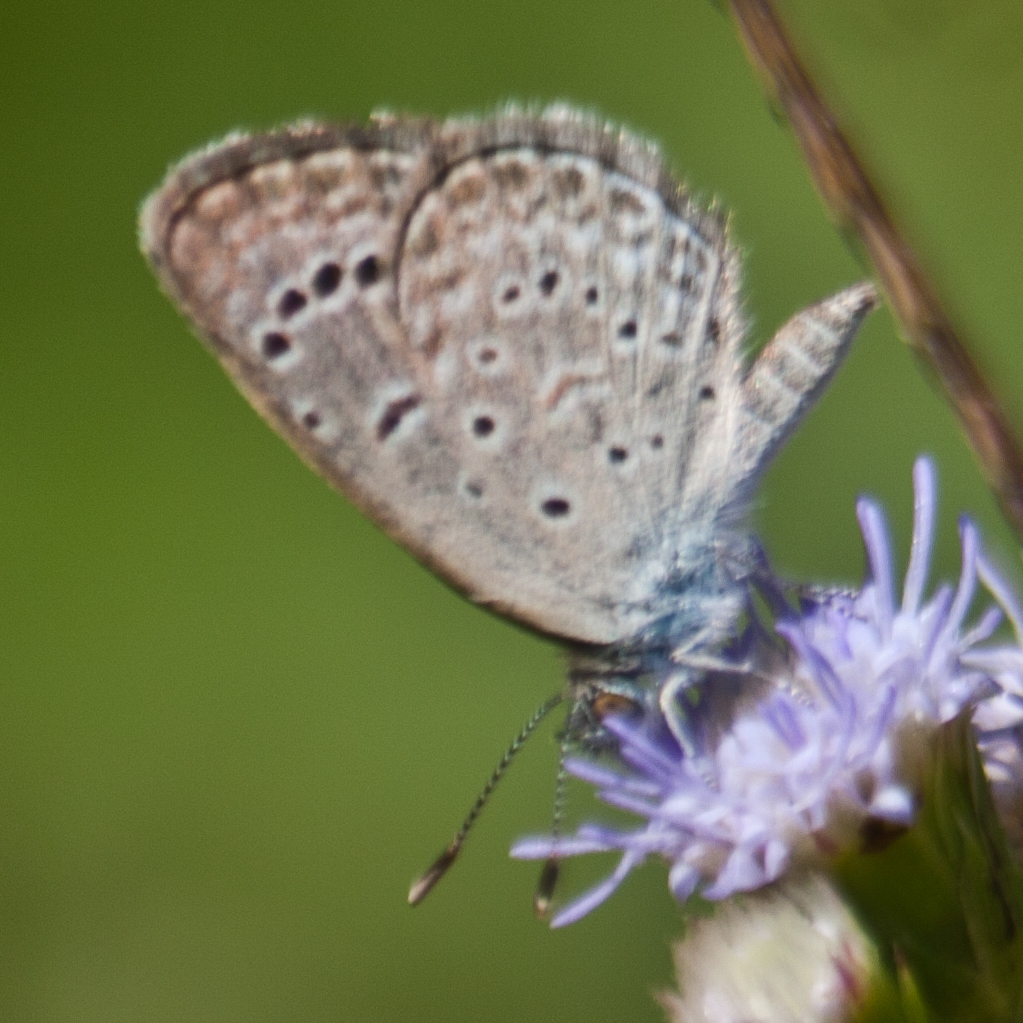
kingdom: Animalia
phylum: Arthropoda
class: Insecta
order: Lepidoptera
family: Lycaenidae
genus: Zizeeria
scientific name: Zizeeria karsandra
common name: Dark grass blue
